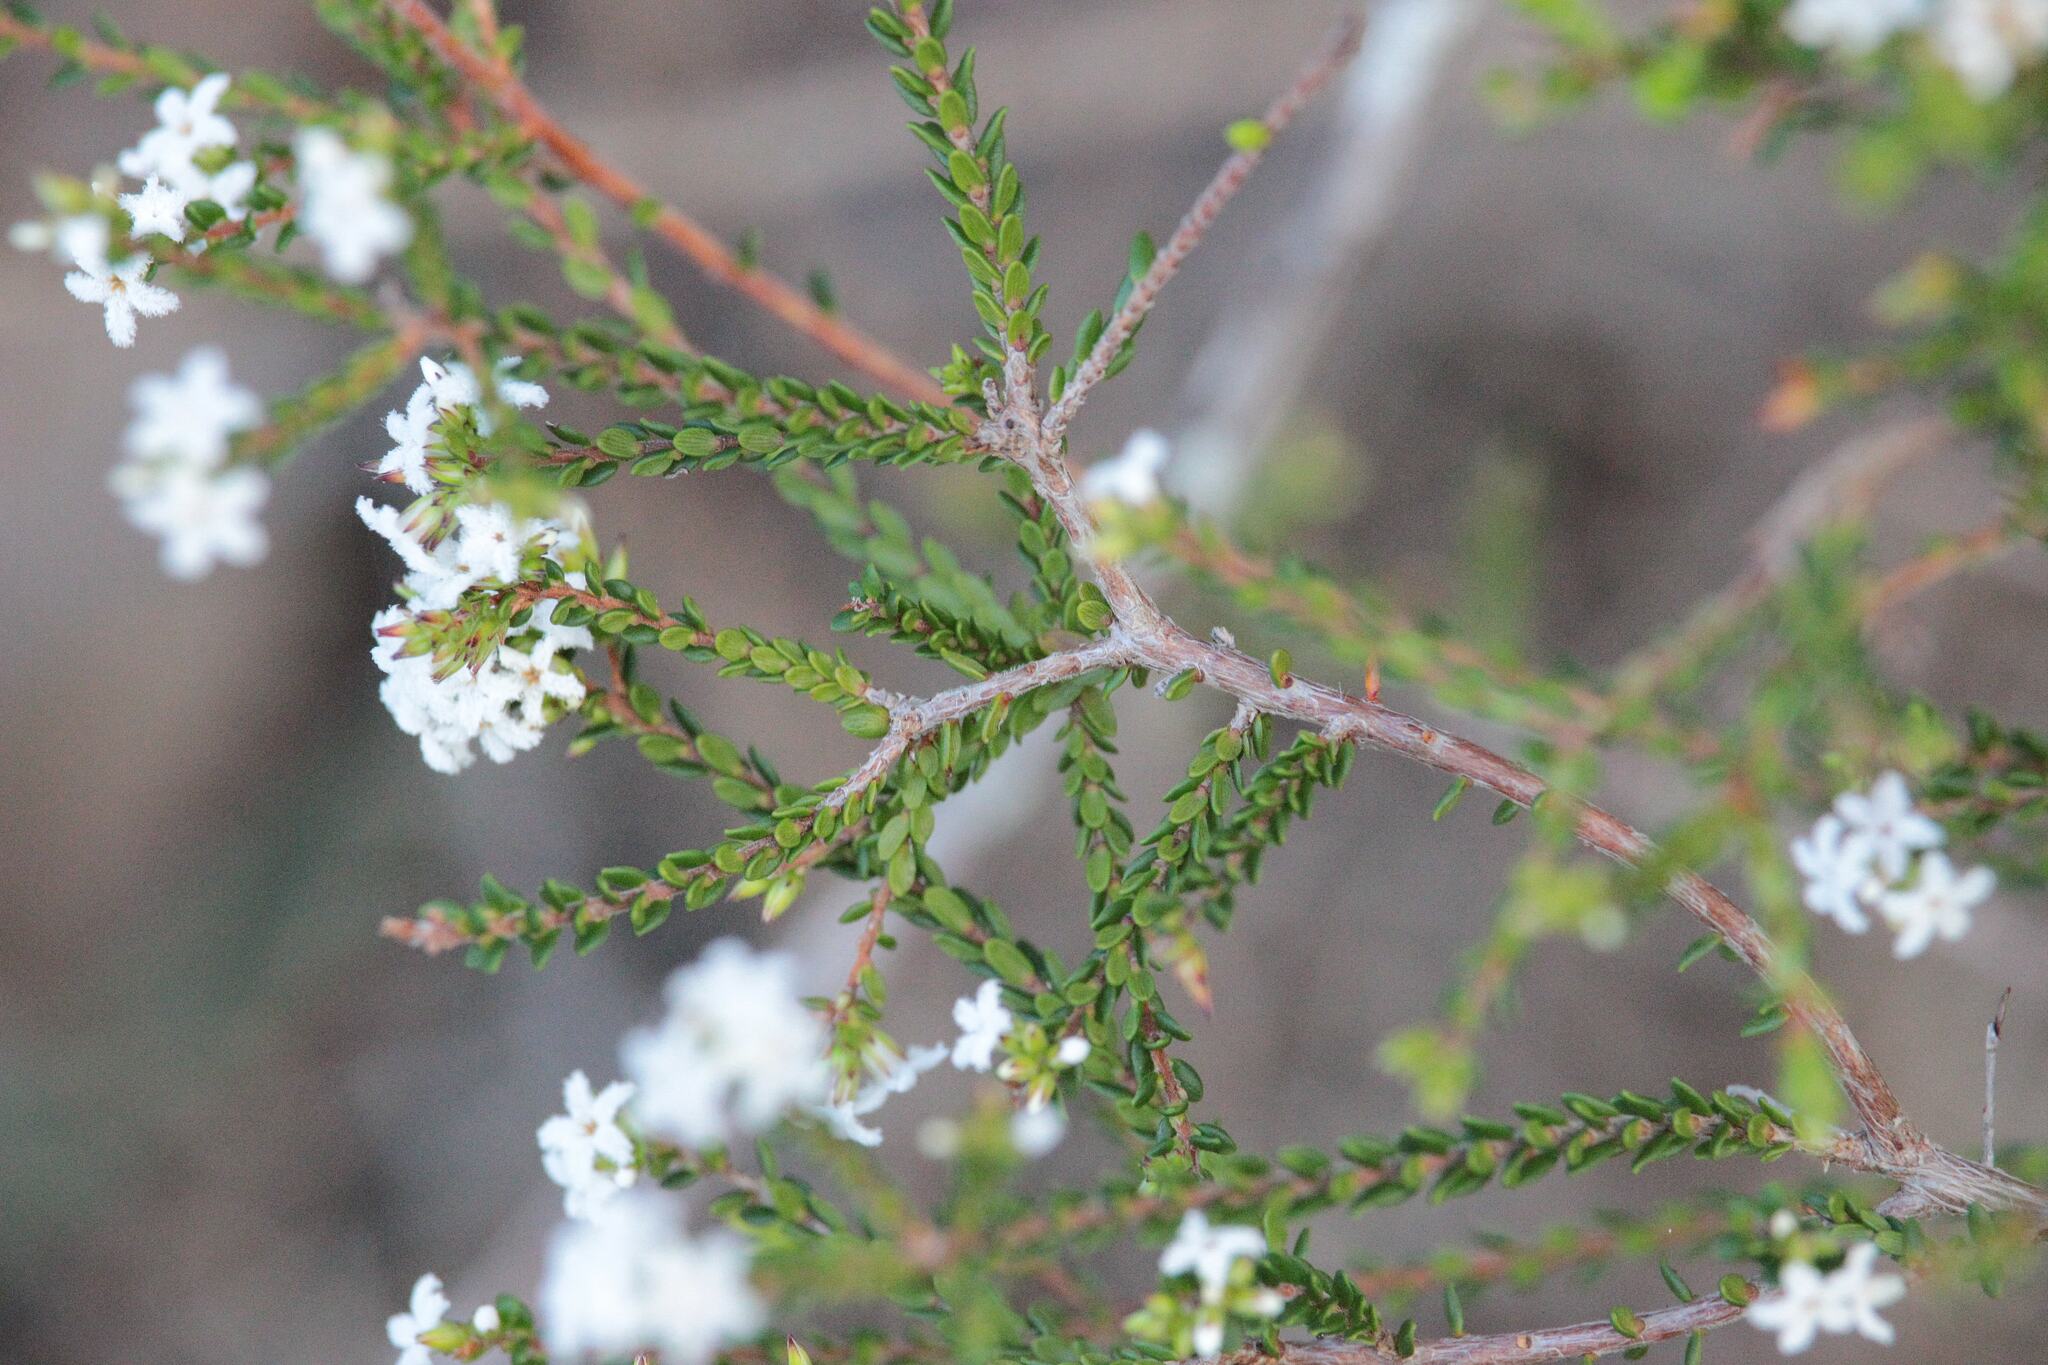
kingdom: Plantae
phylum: Tracheophyta
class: Magnoliopsida
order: Ericales
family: Ericaceae
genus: Leucopogon
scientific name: Leucopogon microphyllus
